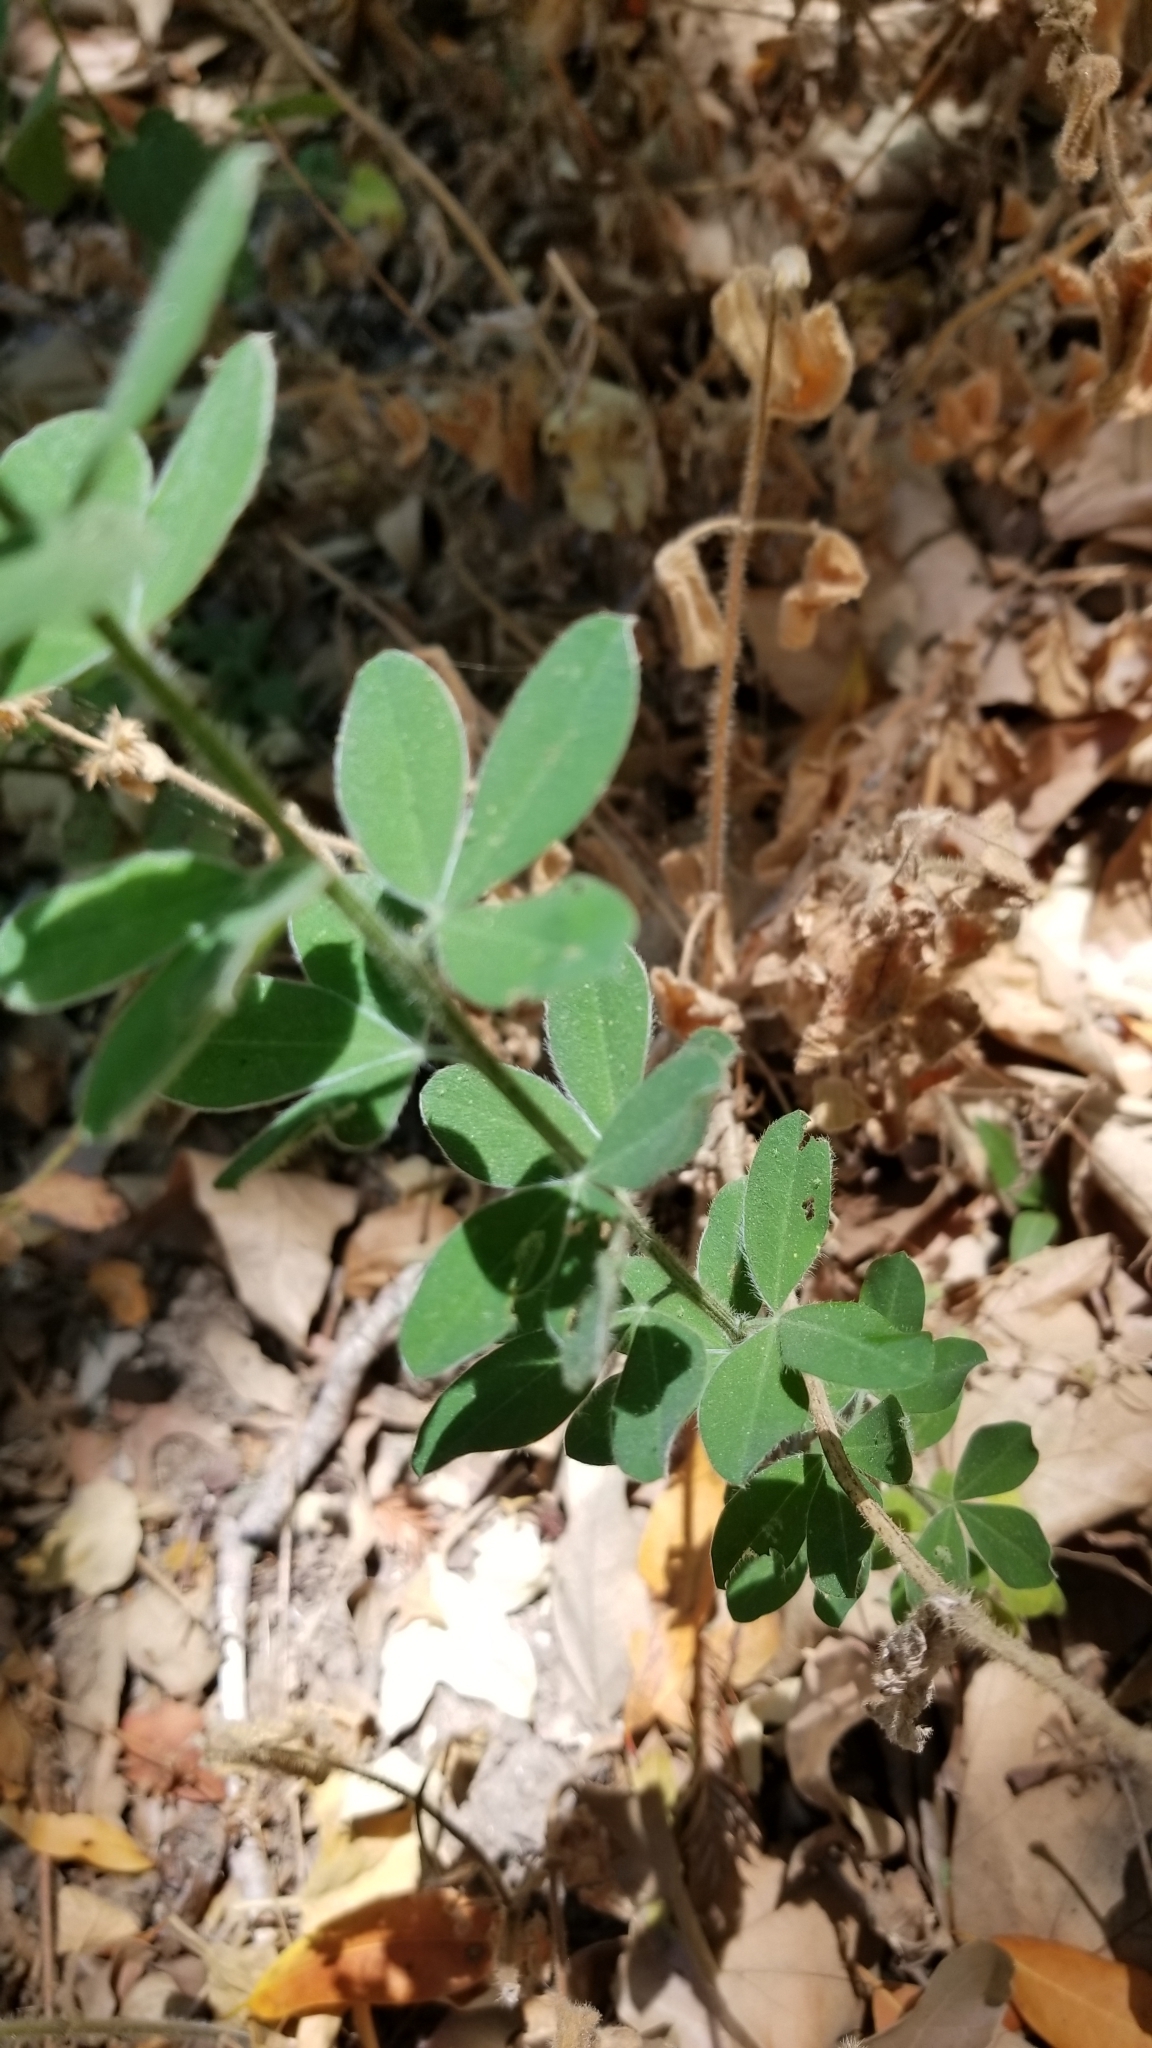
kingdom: Plantae
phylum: Tracheophyta
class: Magnoliopsida
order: Fabales
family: Fabaceae
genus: Genista
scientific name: Genista monspessulana
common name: Montpellier broom
